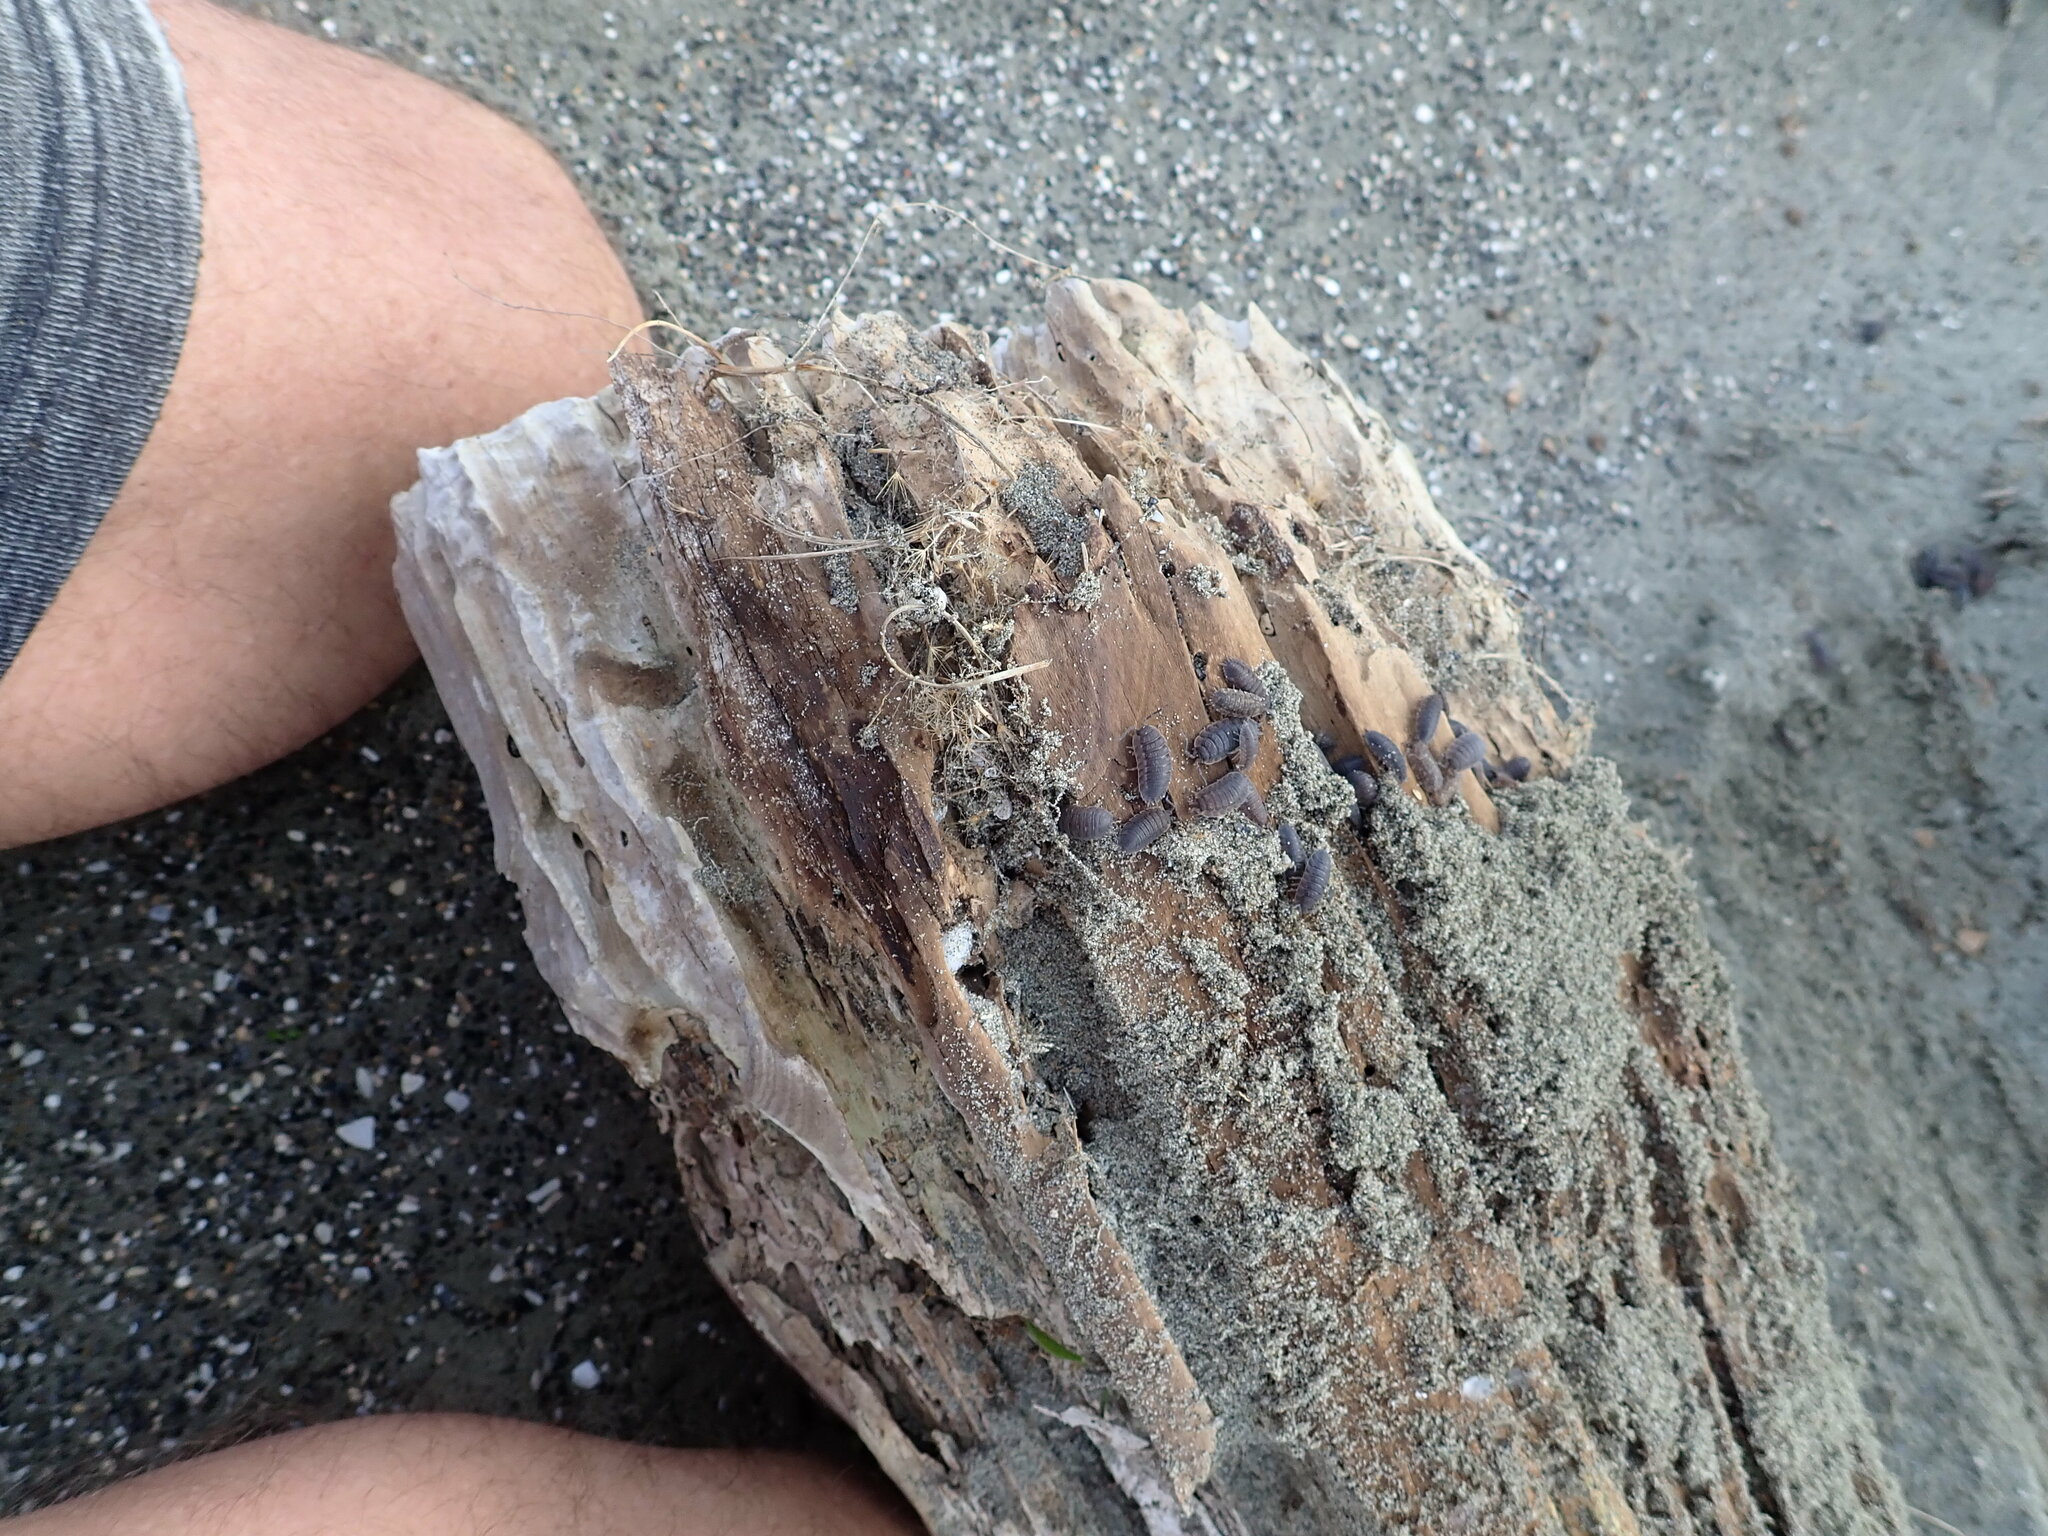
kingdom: Animalia
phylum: Arthropoda
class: Malacostraca
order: Isopoda
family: Porcellionidae
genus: Porcellio
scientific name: Porcellio scaber
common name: Common rough woodlouse
